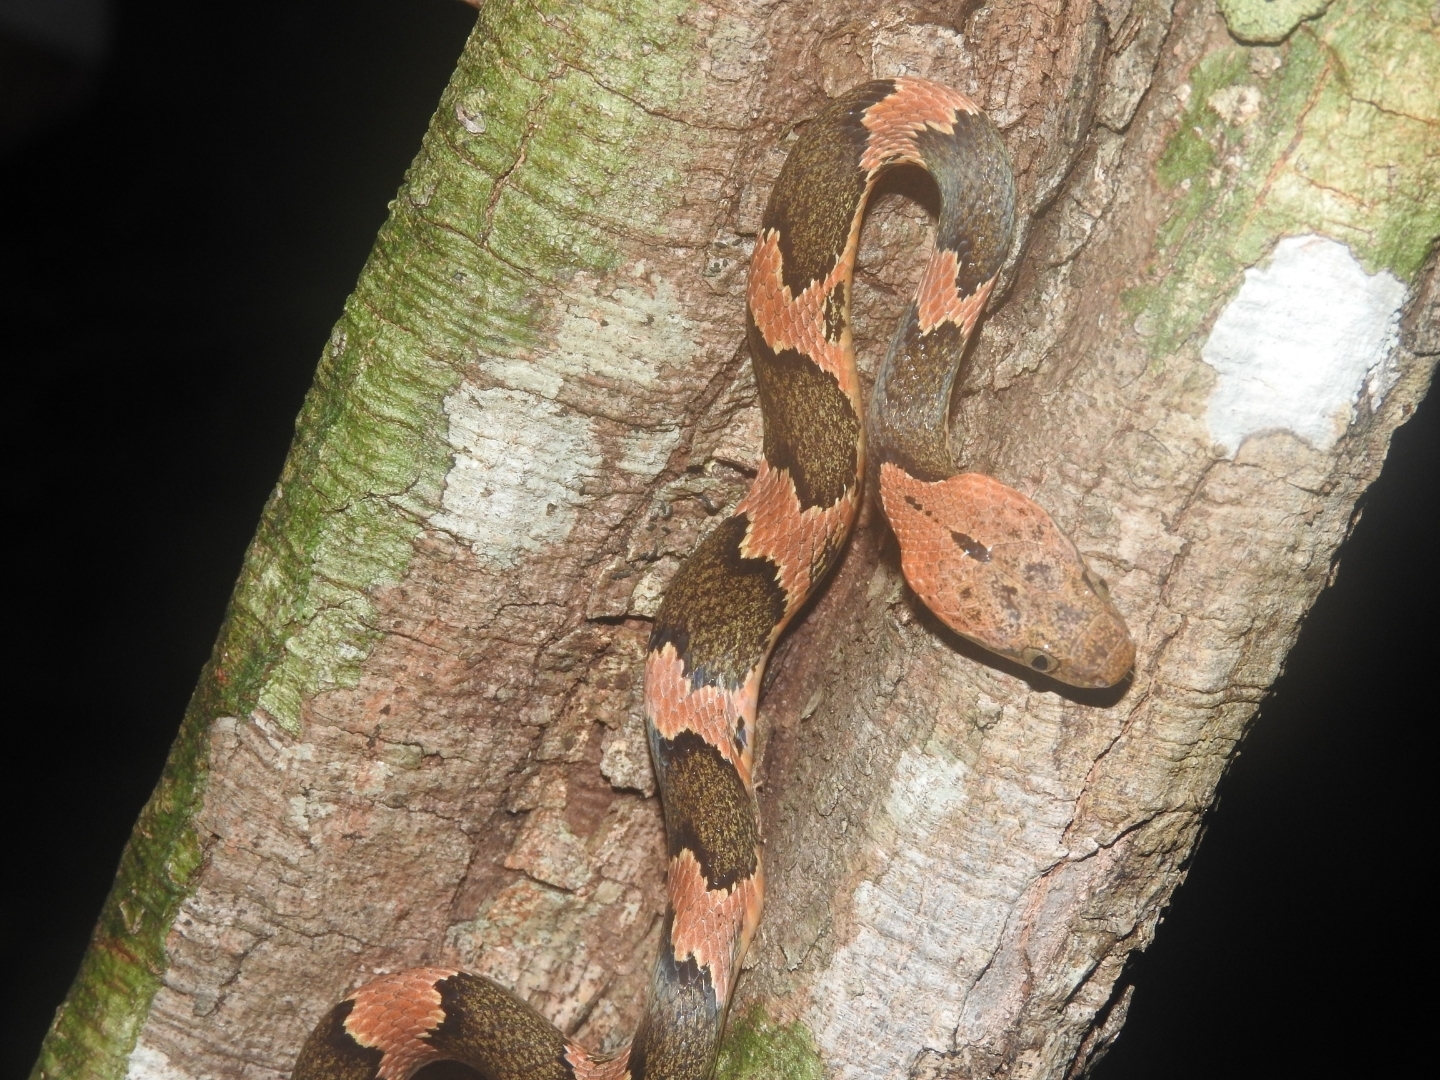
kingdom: Animalia
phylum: Chordata
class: Squamata
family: Colubridae
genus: Leptodeira
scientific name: Leptodeira frenata
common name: Rainforest cat-eyed snake
